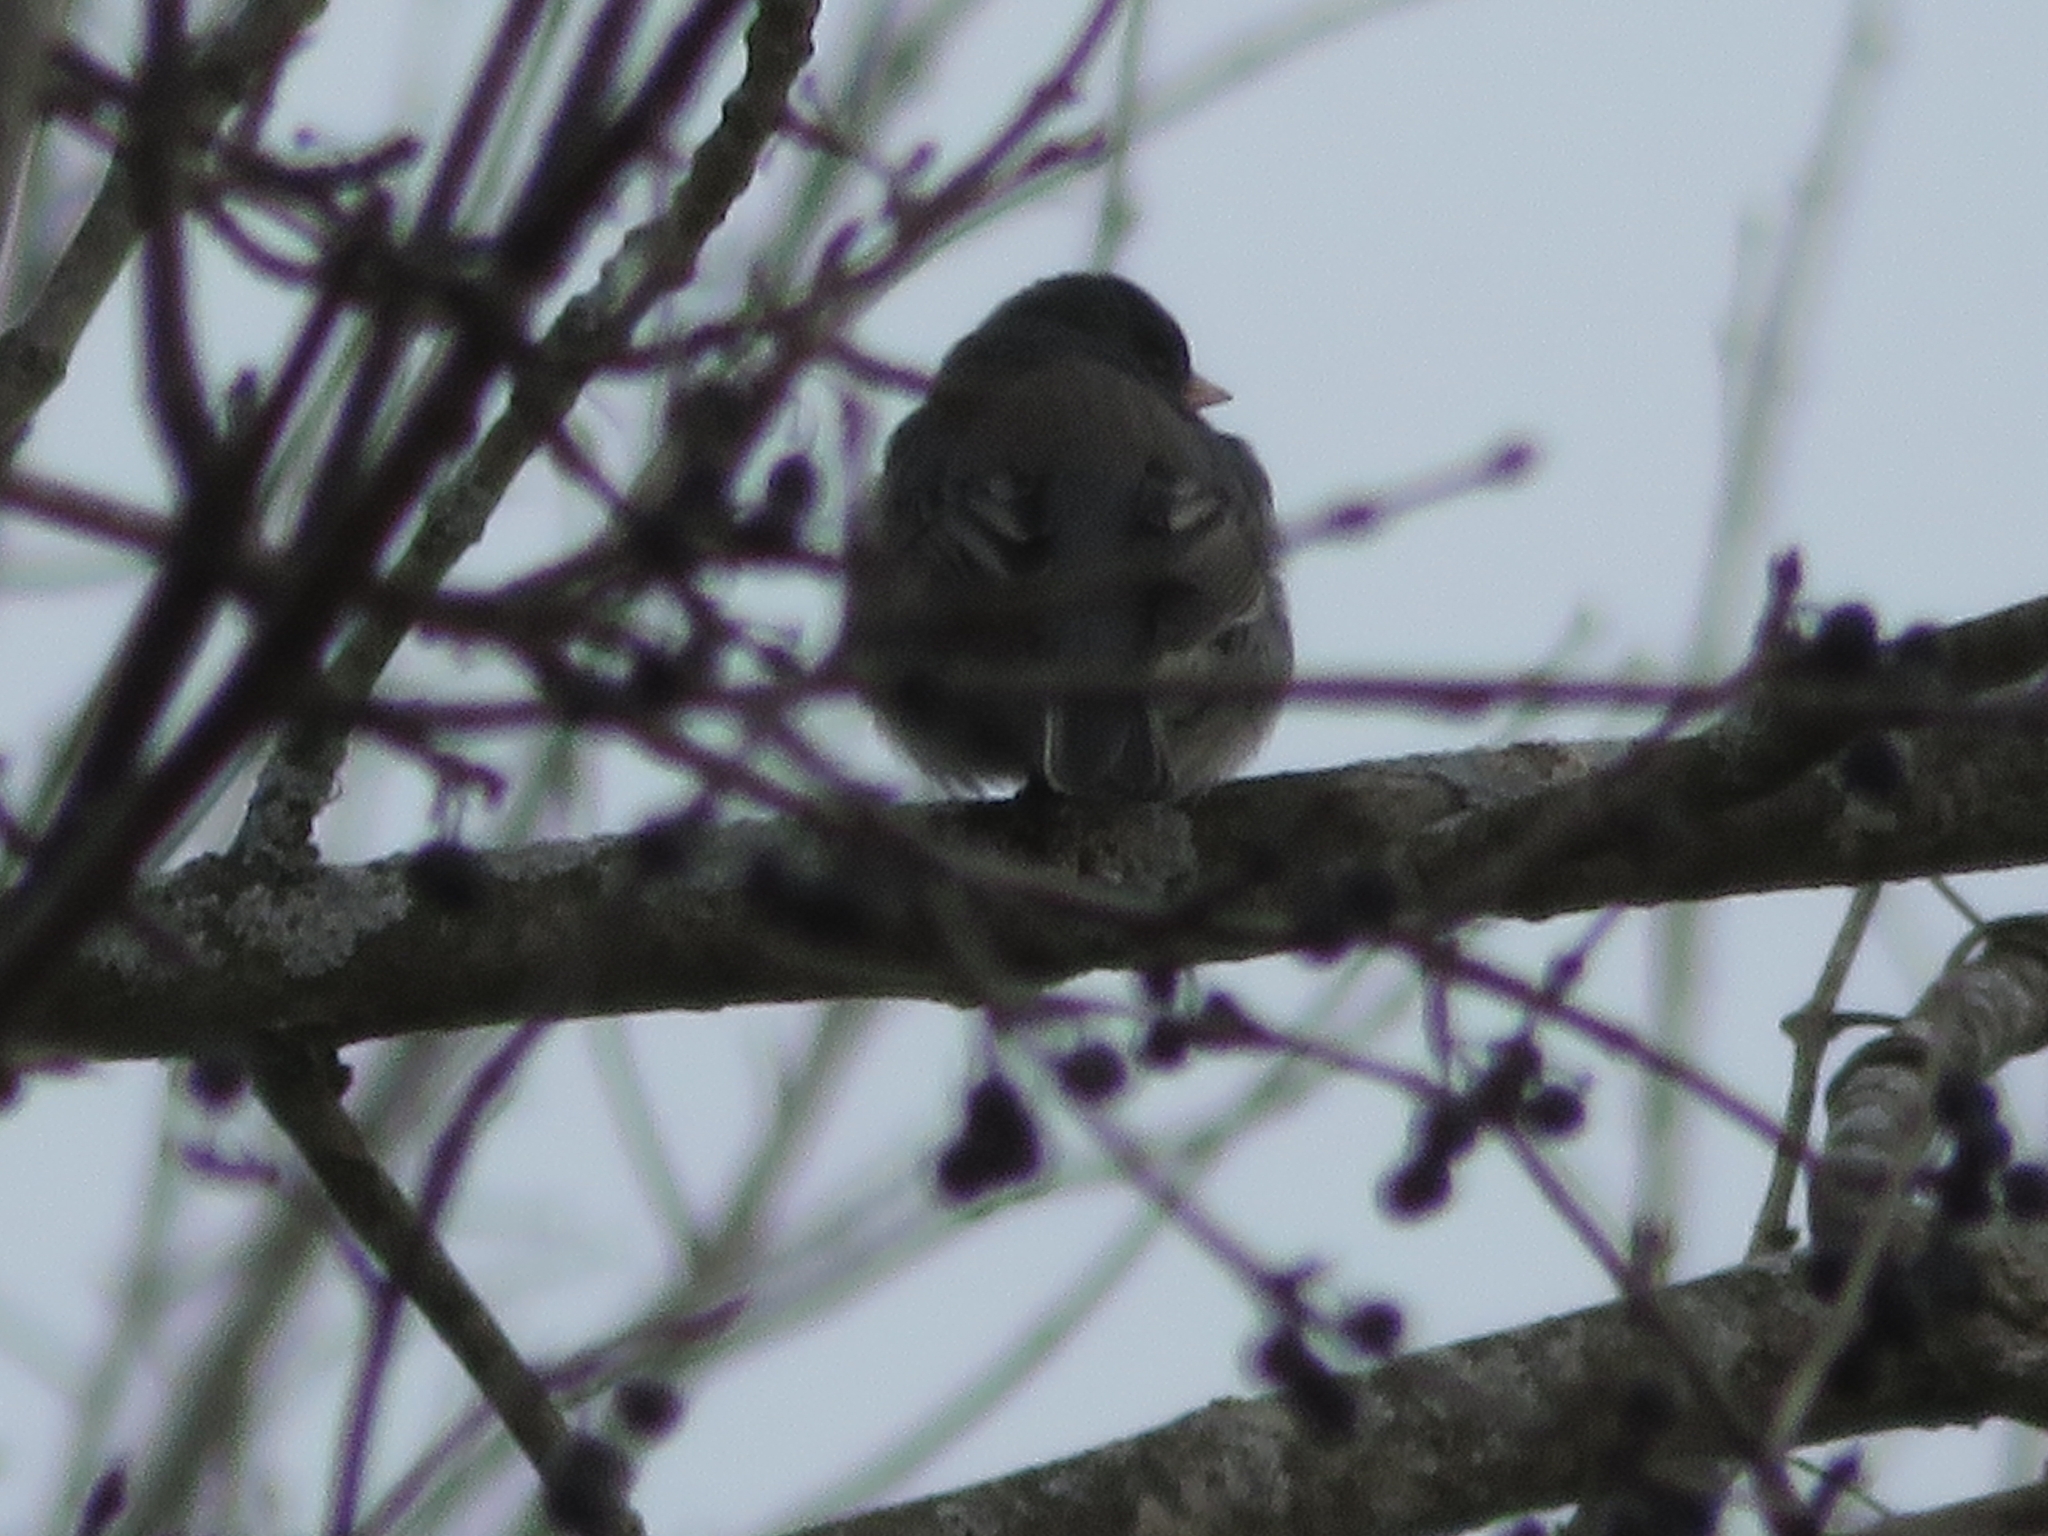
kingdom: Animalia
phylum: Chordata
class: Aves
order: Passeriformes
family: Passerellidae
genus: Junco
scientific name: Junco hyemalis
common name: Dark-eyed junco
